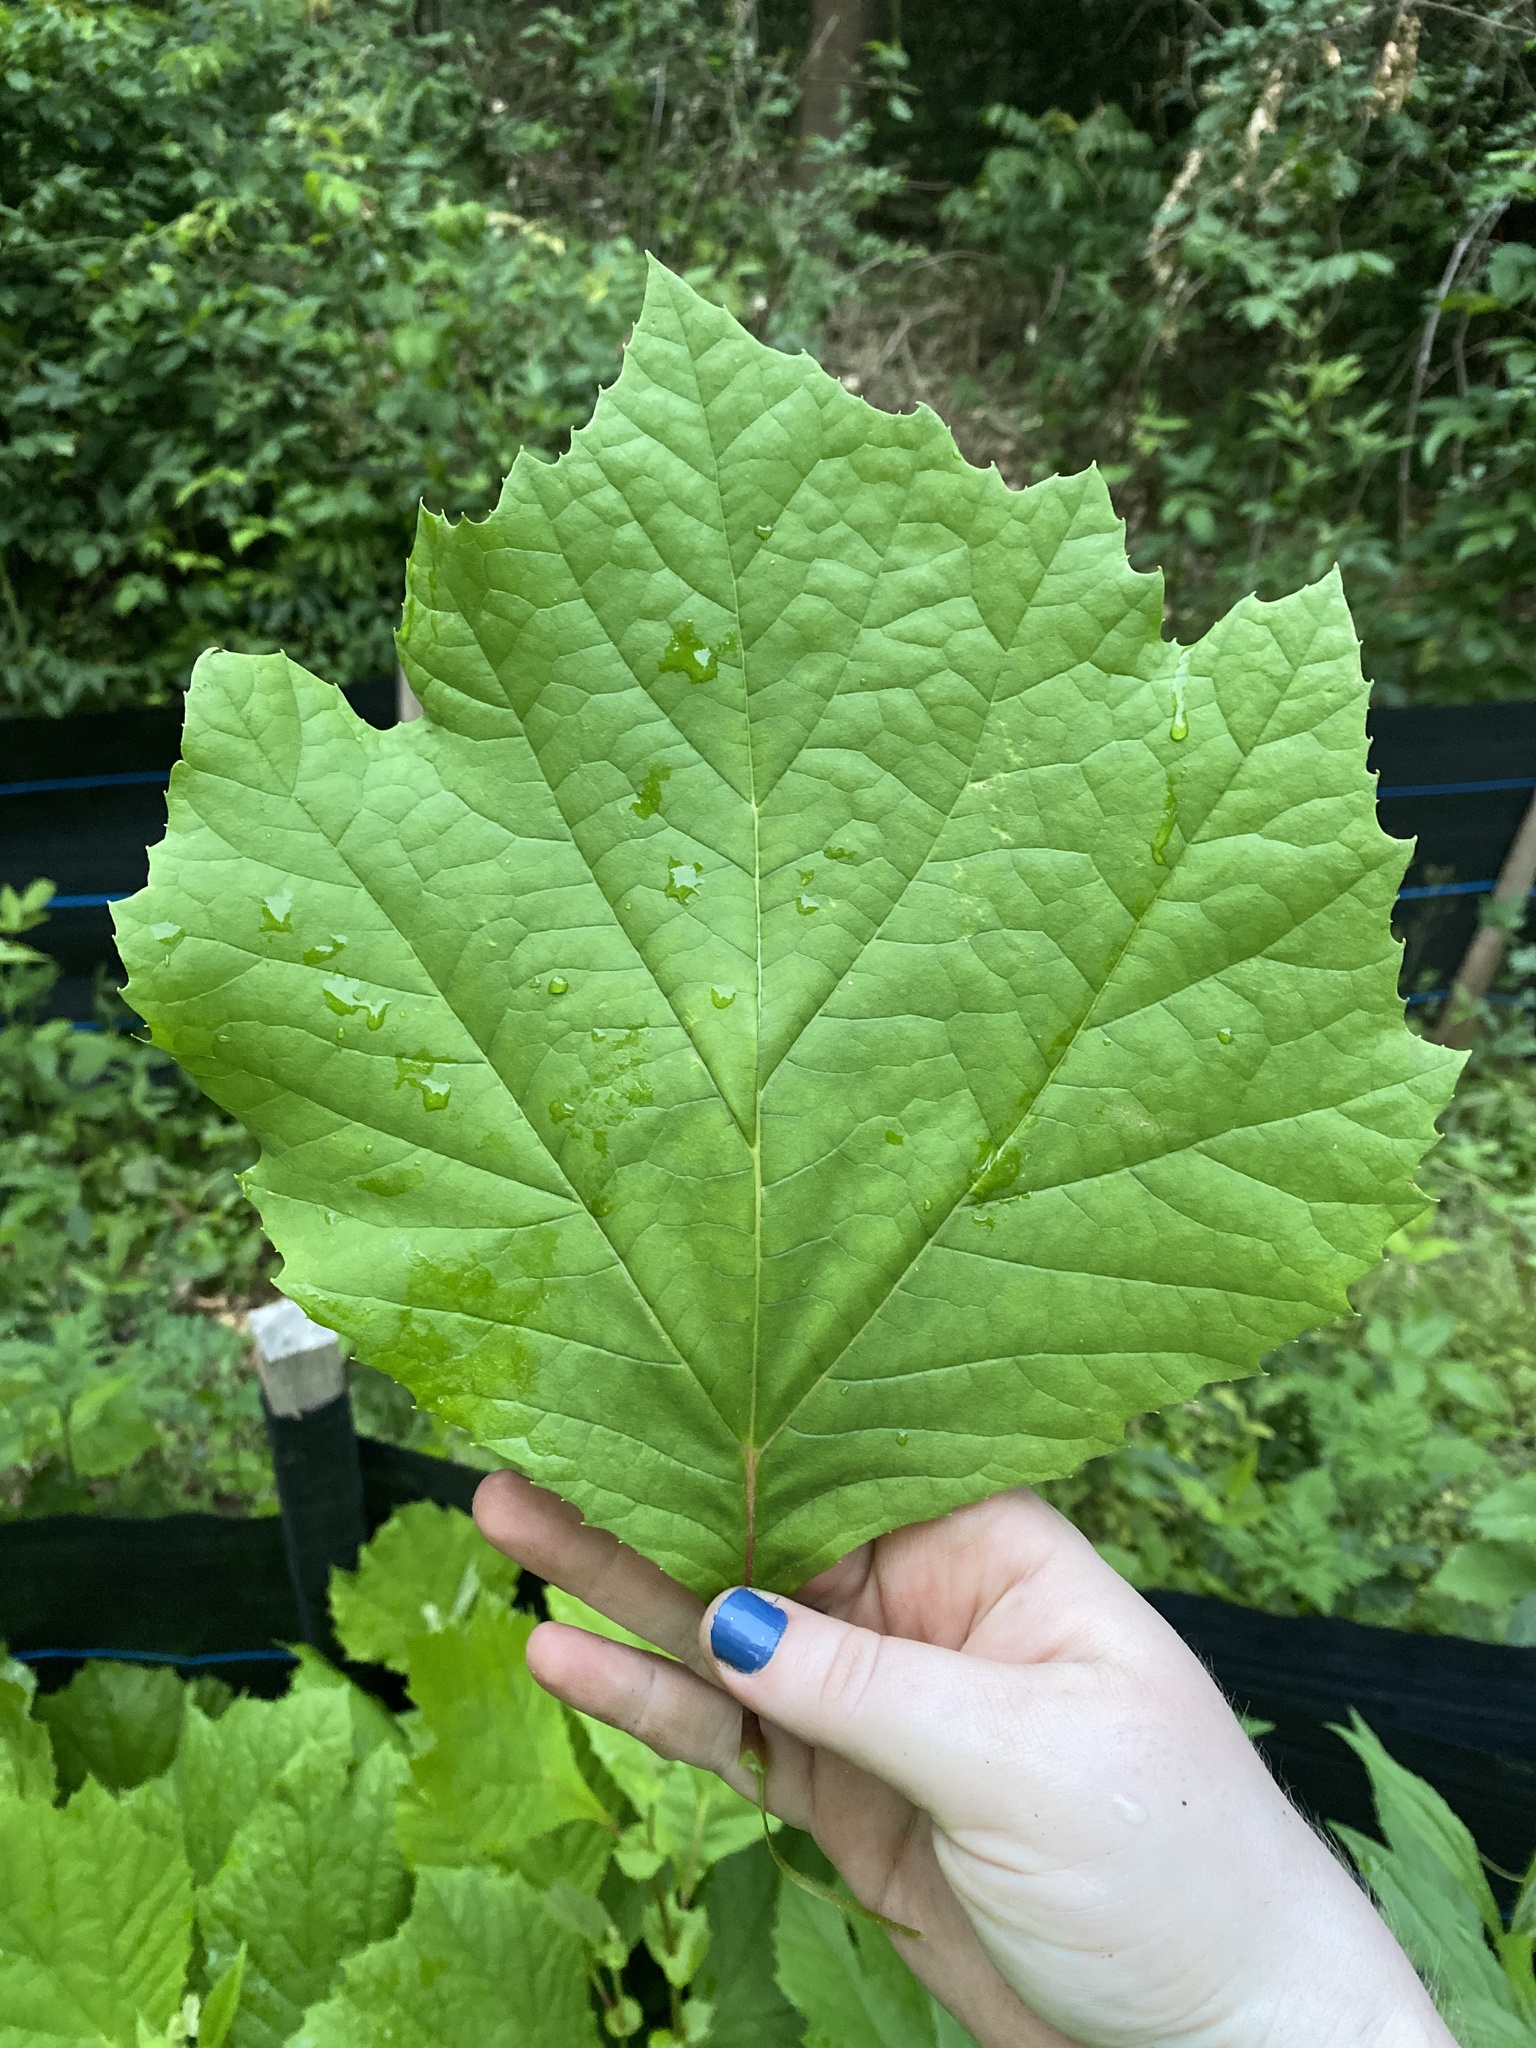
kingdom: Plantae
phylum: Tracheophyta
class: Magnoliopsida
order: Proteales
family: Platanaceae
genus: Platanus
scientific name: Platanus occidentalis
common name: American sycamore
